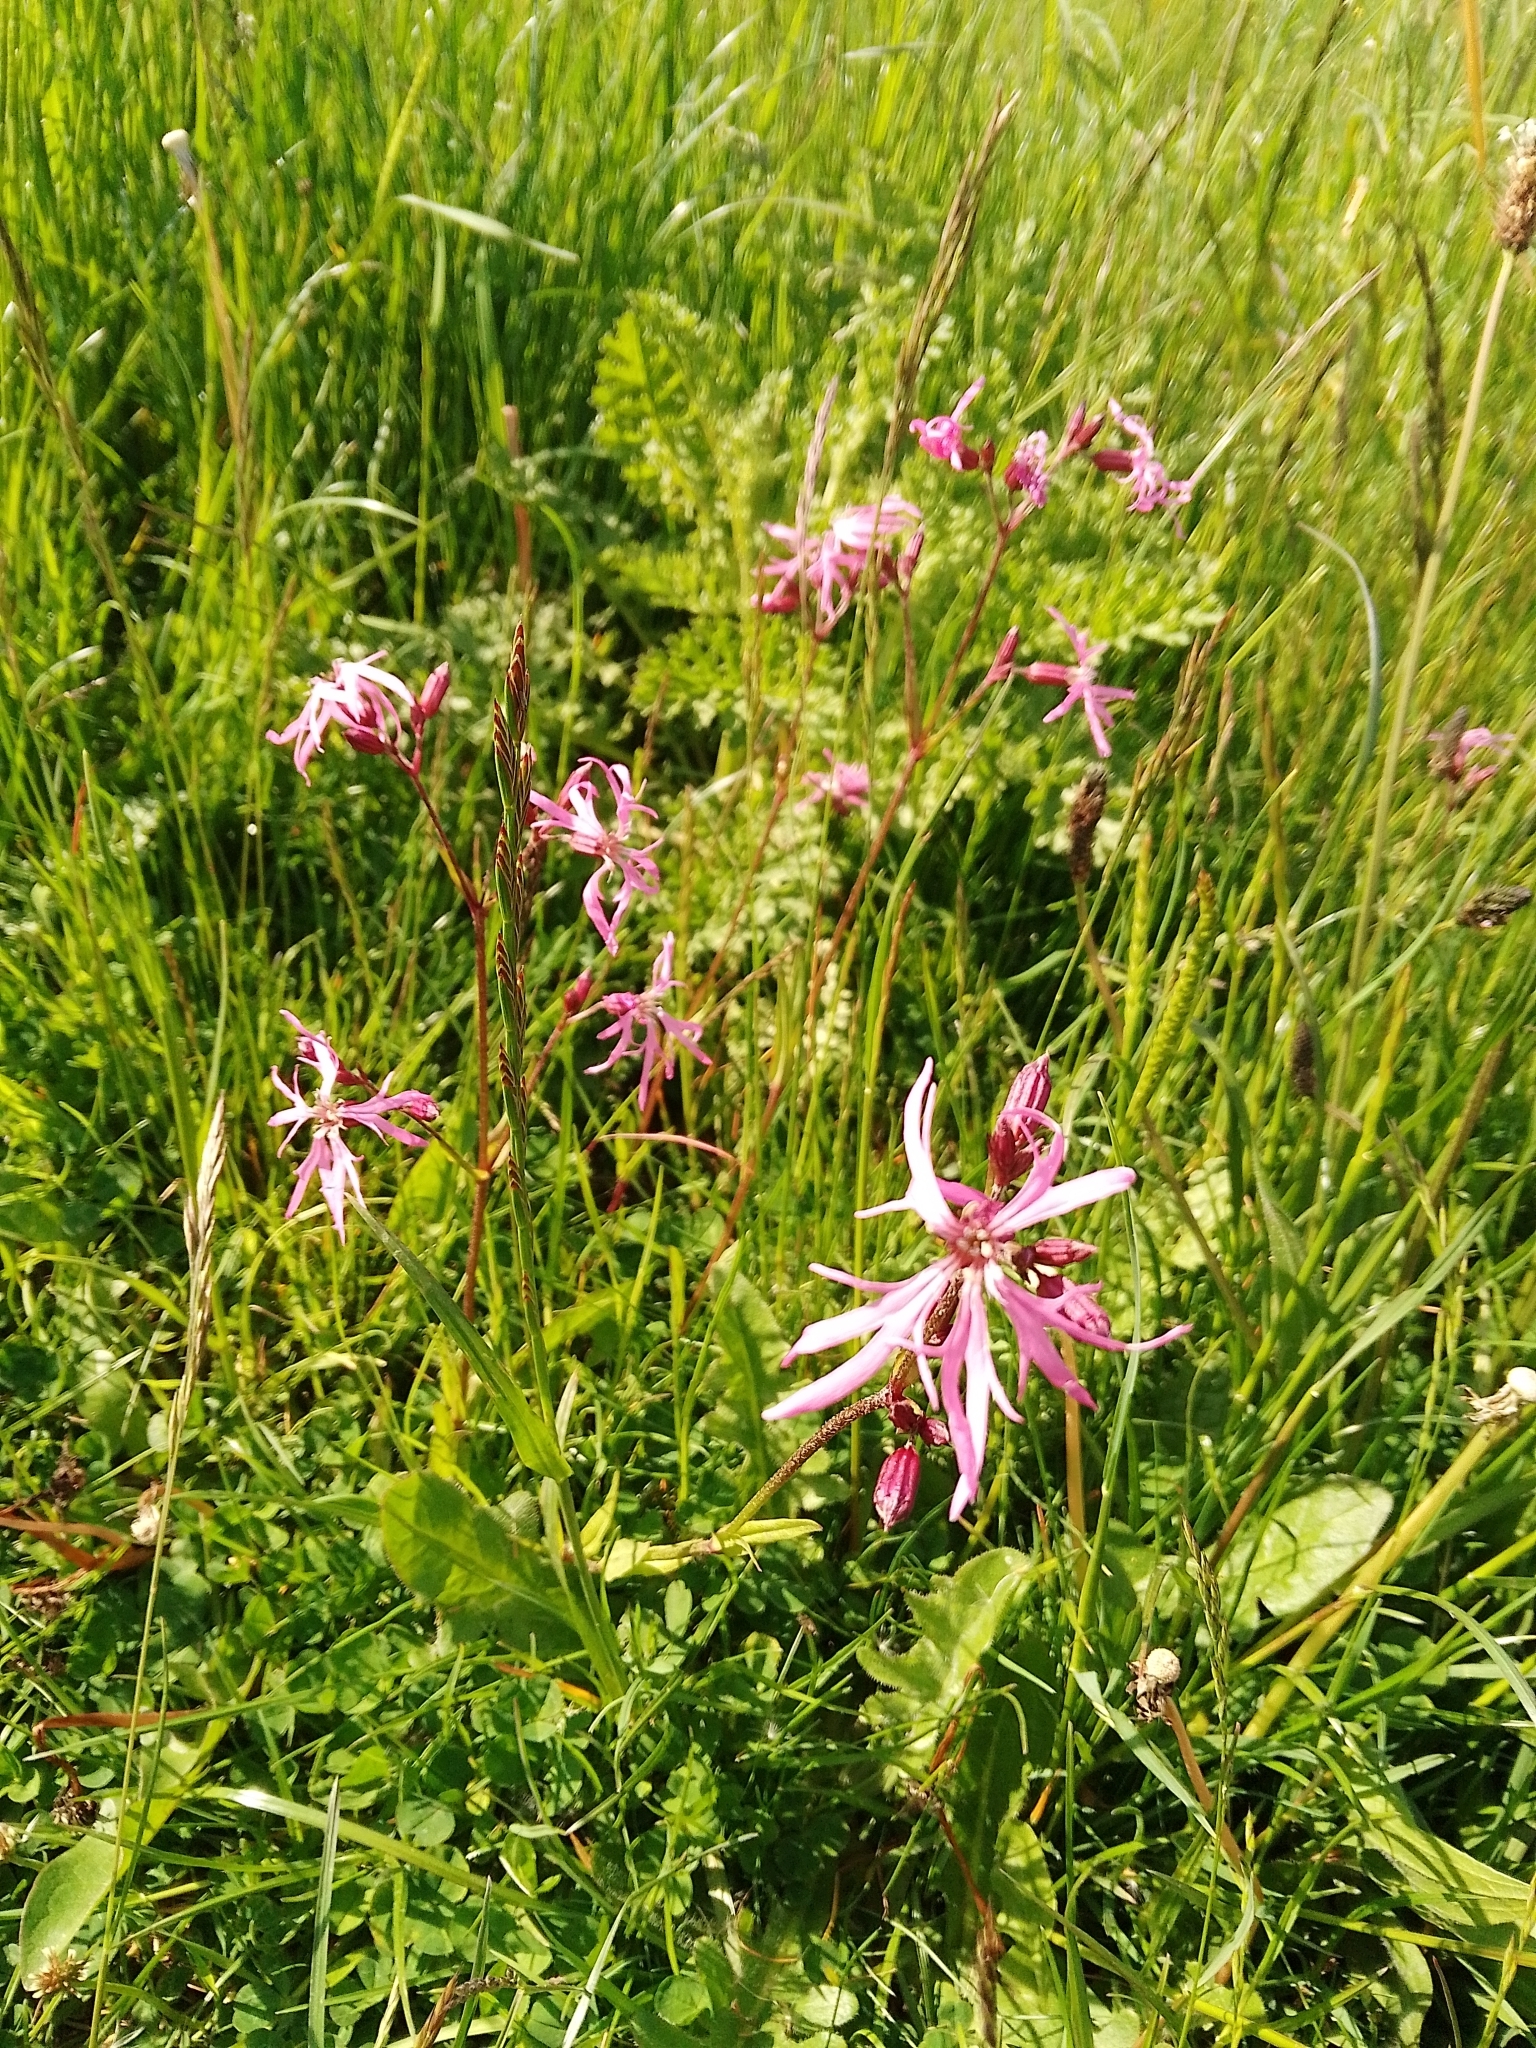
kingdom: Plantae
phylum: Tracheophyta
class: Magnoliopsida
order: Caryophyllales
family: Caryophyllaceae
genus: Silene
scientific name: Silene flos-cuculi
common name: Ragged-robin
